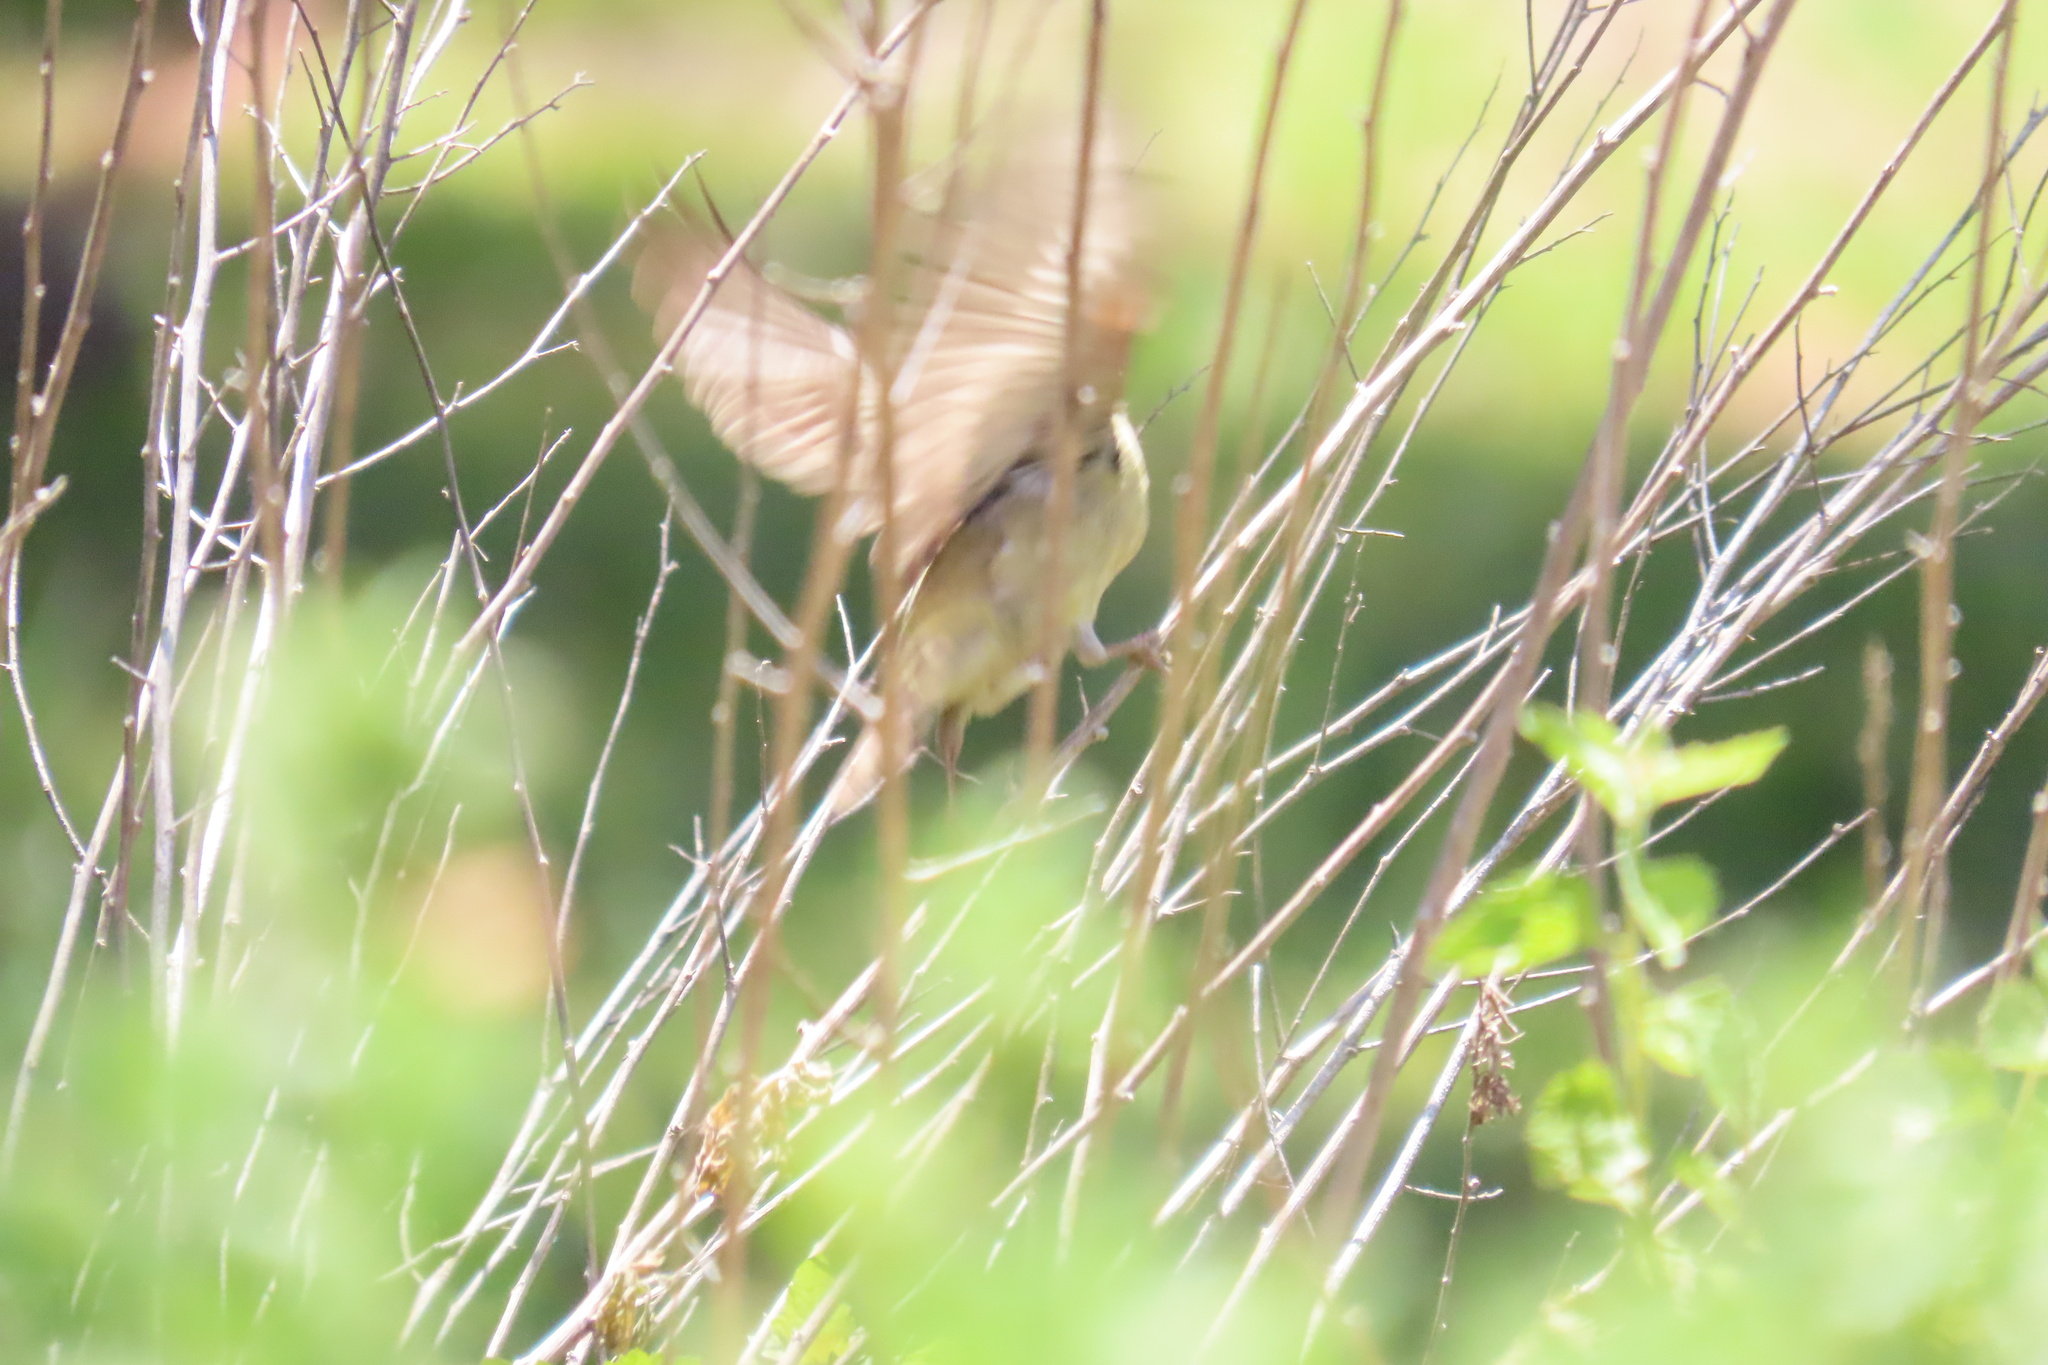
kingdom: Animalia
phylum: Chordata
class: Aves
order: Passeriformes
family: Fringillidae
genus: Spinus
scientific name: Spinus psaltria
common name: Lesser goldfinch
